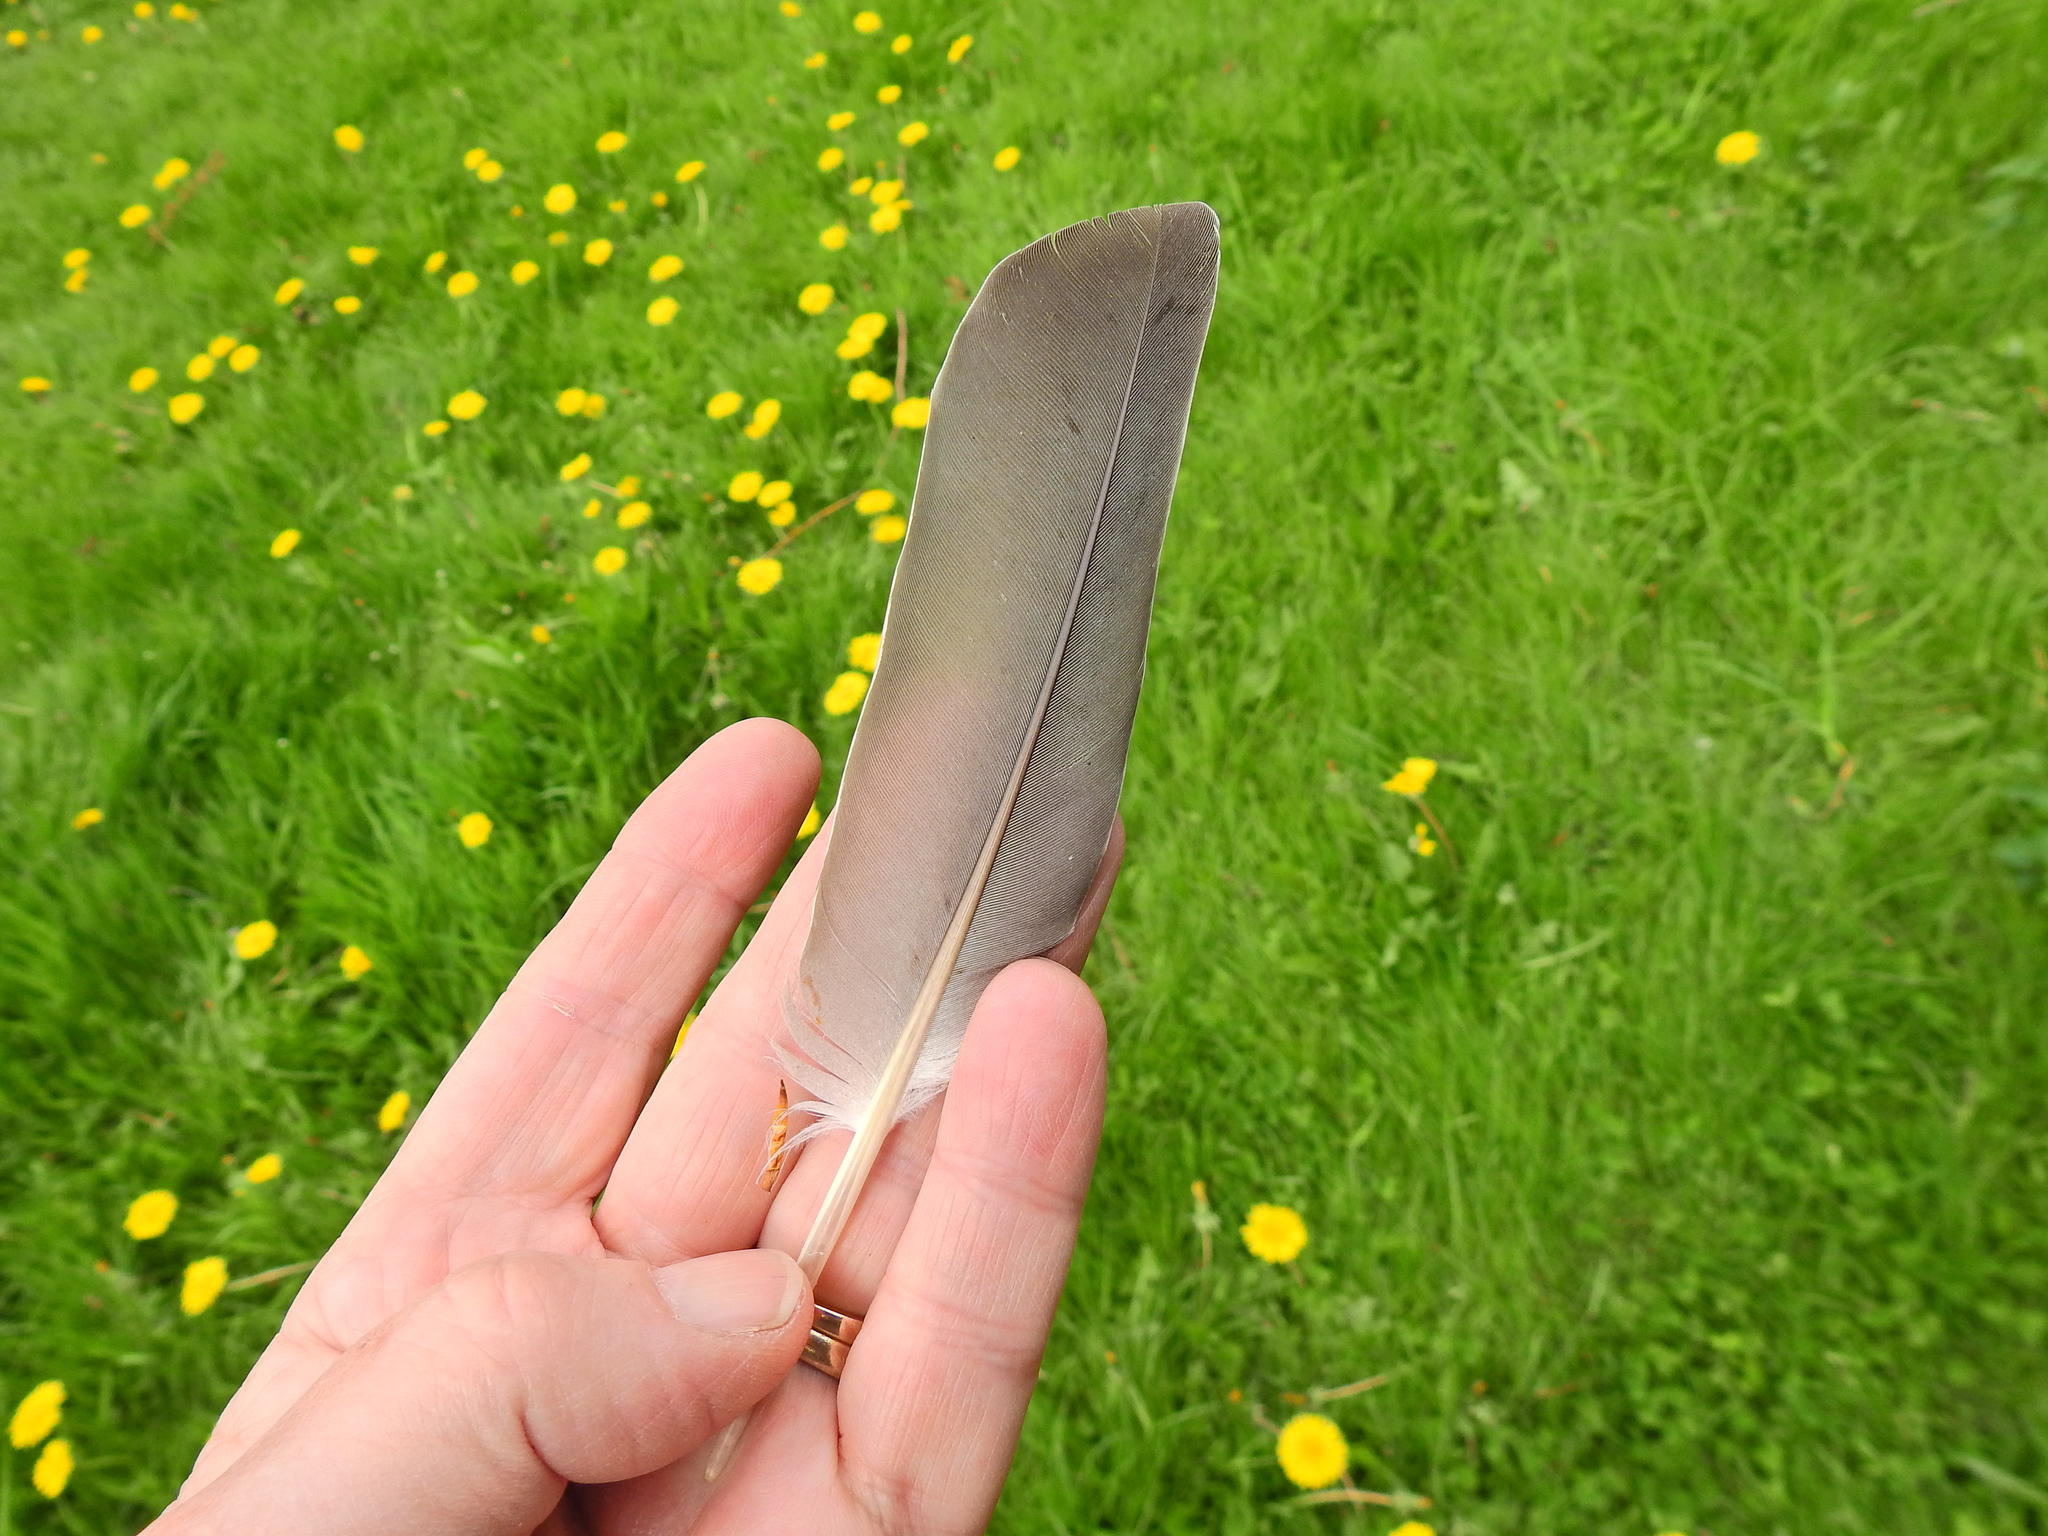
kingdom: Animalia
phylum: Chordata
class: Aves
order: Columbiformes
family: Columbidae
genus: Columba
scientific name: Columba palumbus
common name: Common wood pigeon
